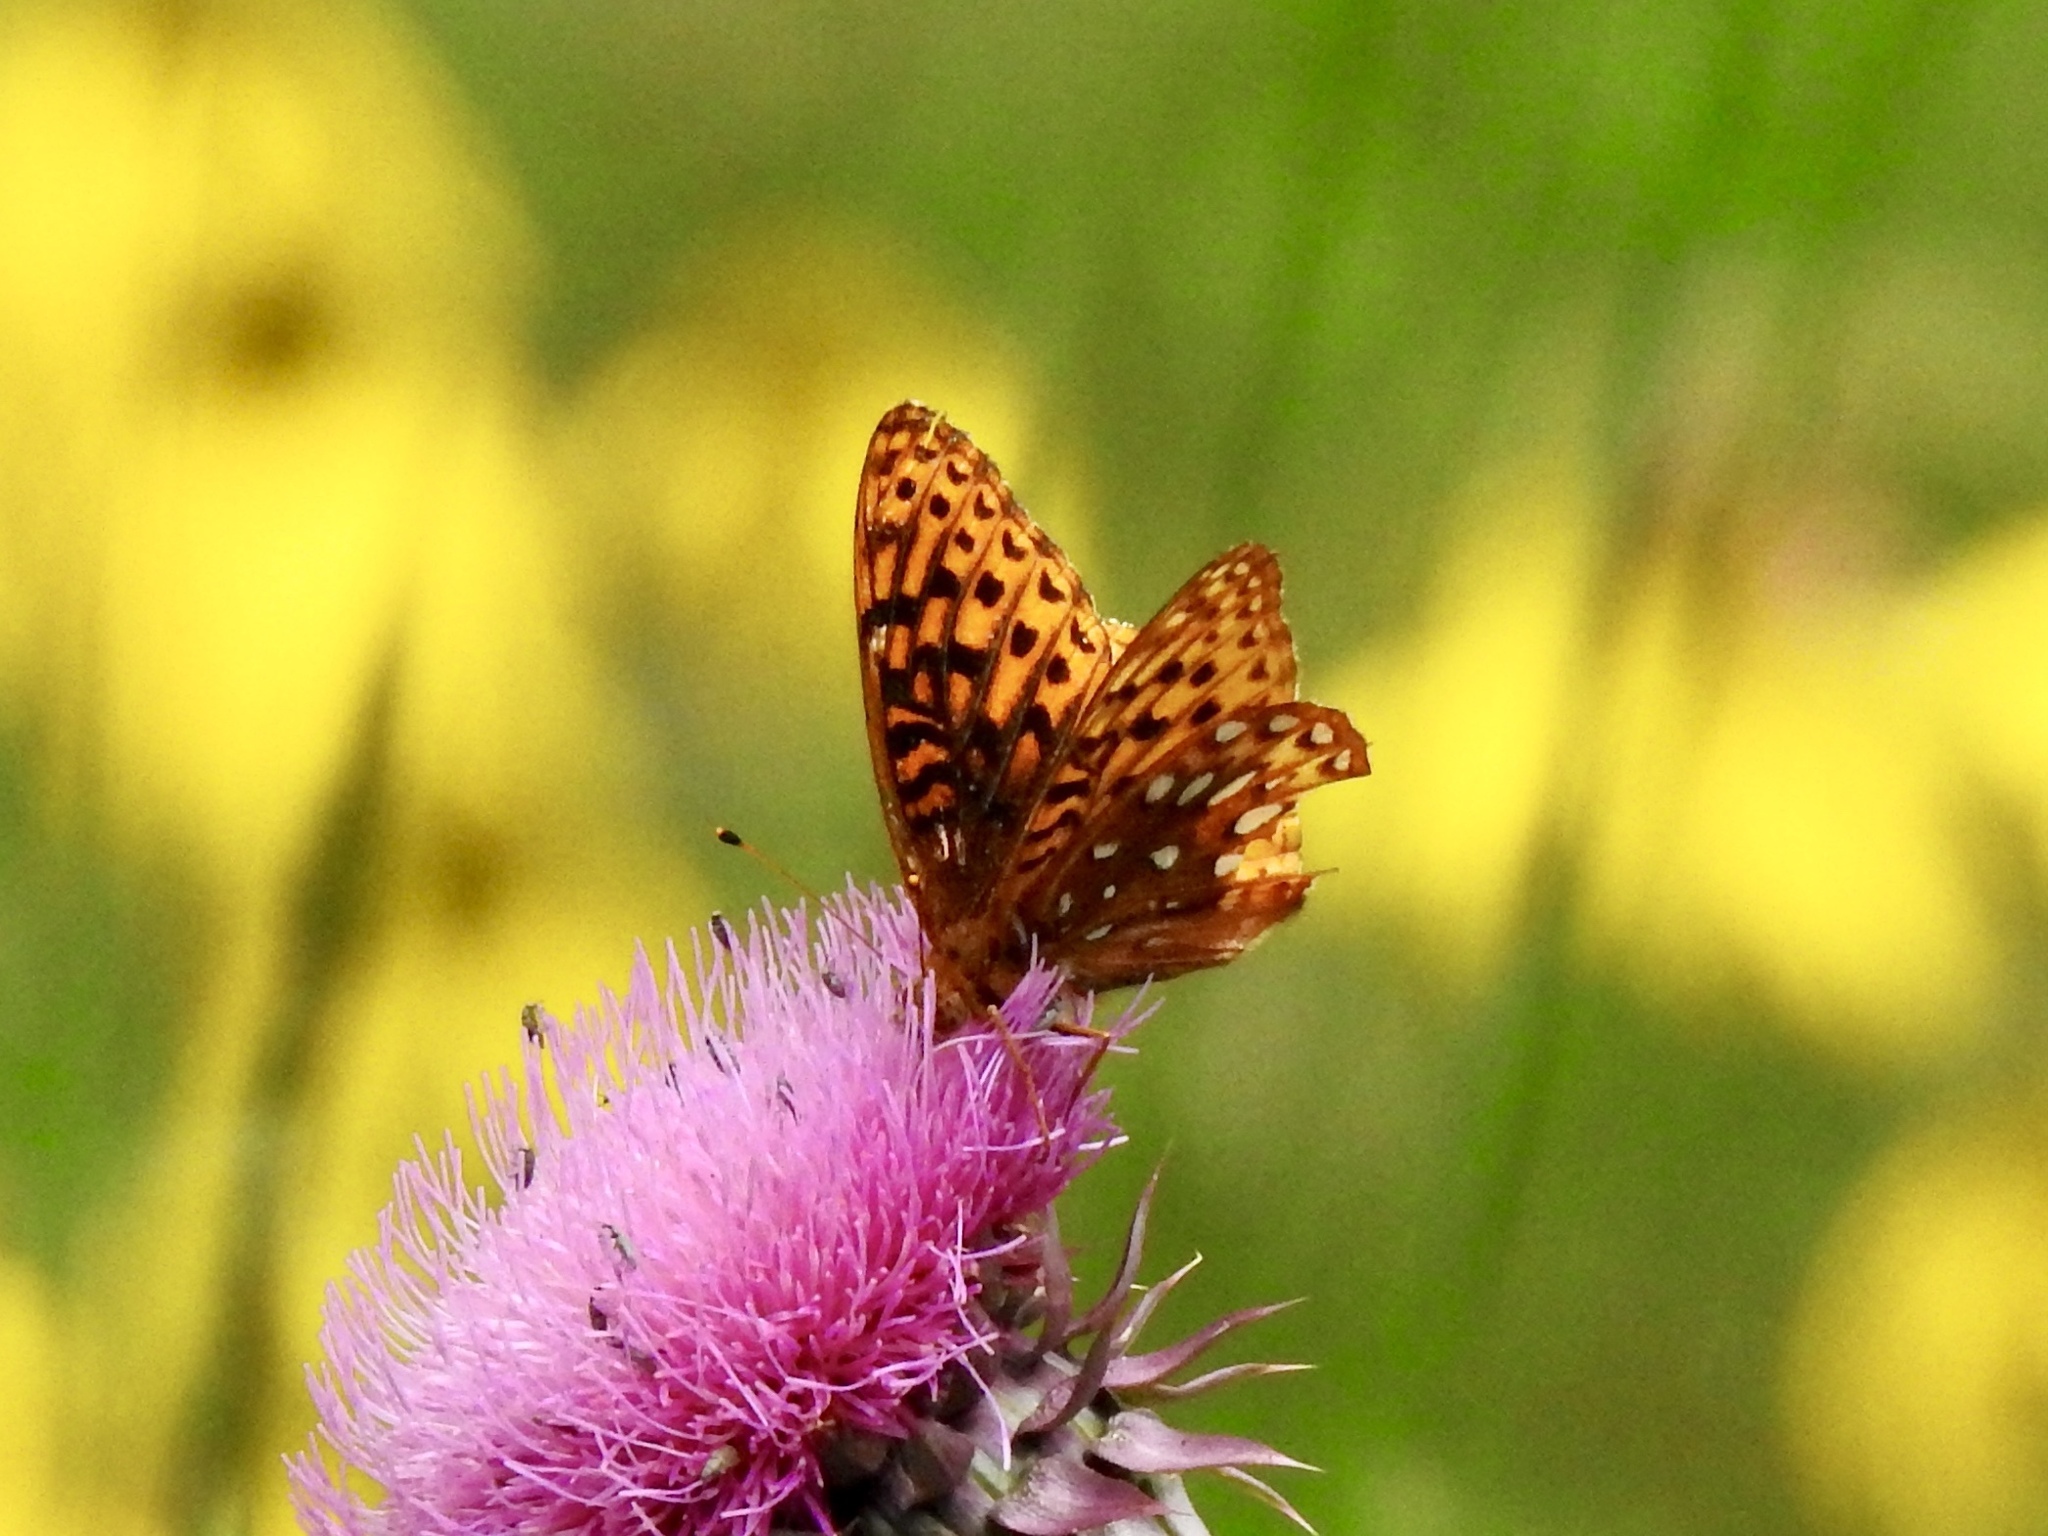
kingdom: Animalia
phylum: Arthropoda
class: Insecta
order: Lepidoptera
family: Nymphalidae
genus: Speyeria
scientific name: Speyeria atlantis
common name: Atlantis fritillary
